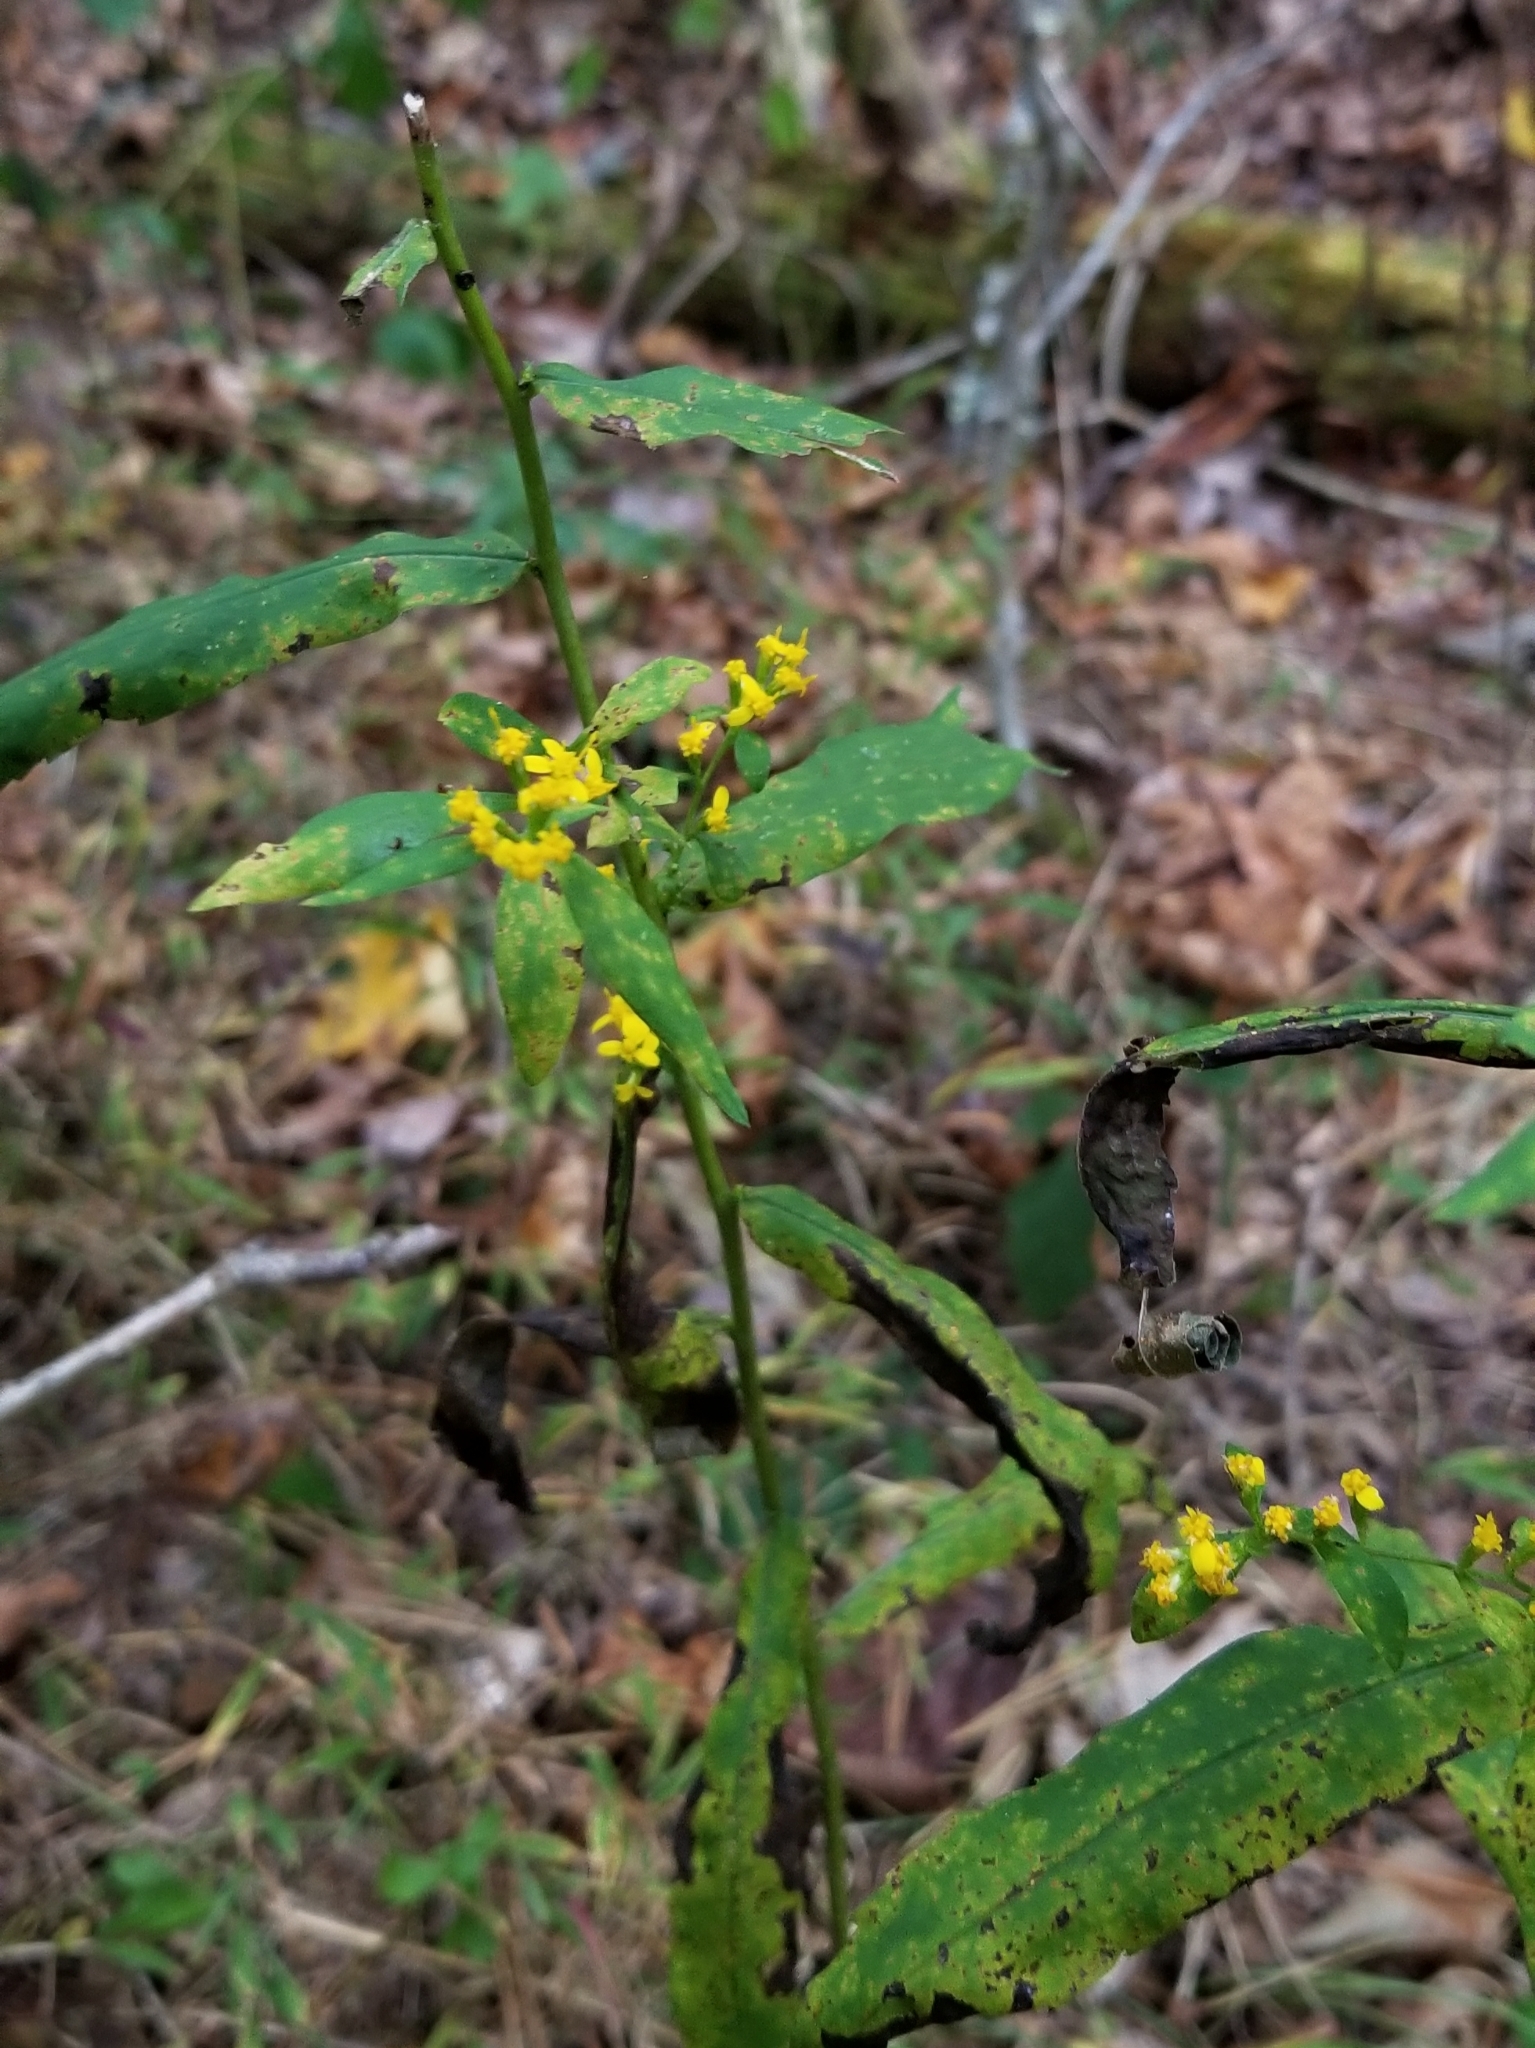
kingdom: Plantae
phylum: Tracheophyta
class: Magnoliopsida
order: Asterales
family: Asteraceae
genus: Solidago
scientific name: Solidago caesia
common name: Woodland goldenrod
